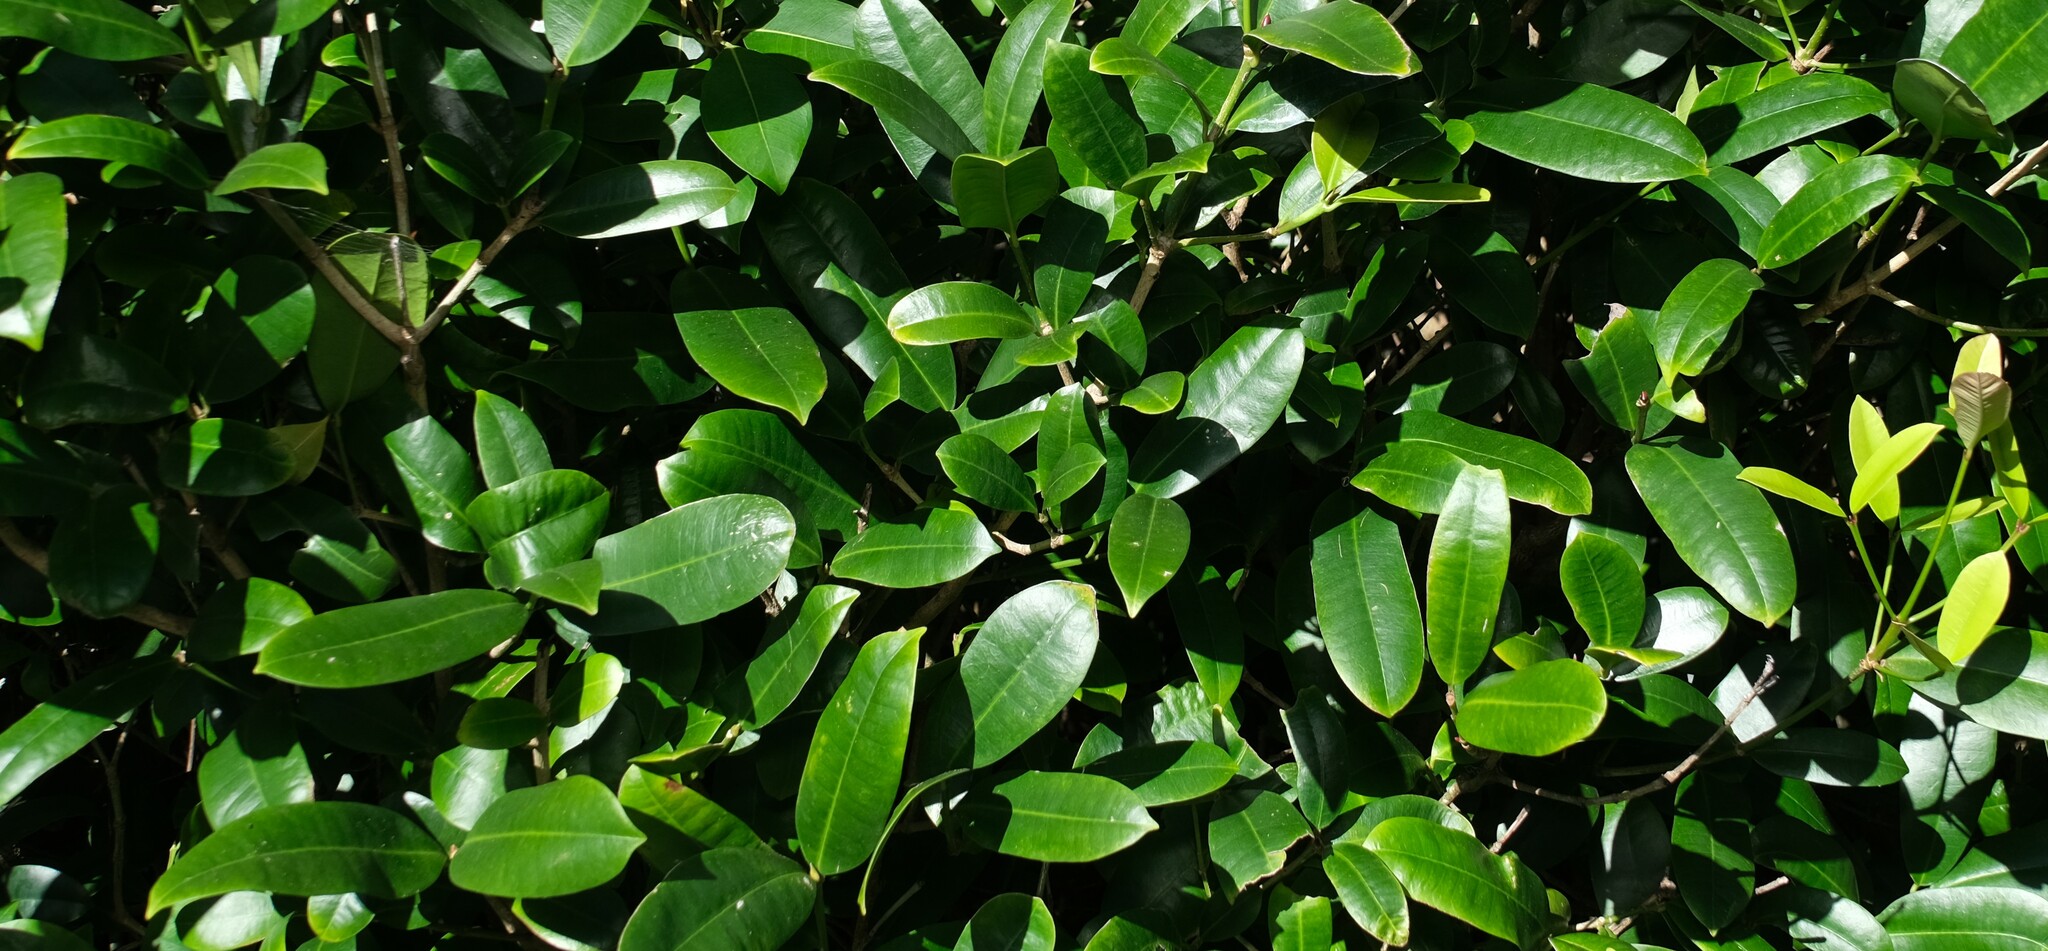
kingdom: Plantae
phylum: Tracheophyta
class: Magnoliopsida
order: Malpighiales
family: Euphorbiaceae
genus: Baloghia
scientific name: Baloghia inophylla
